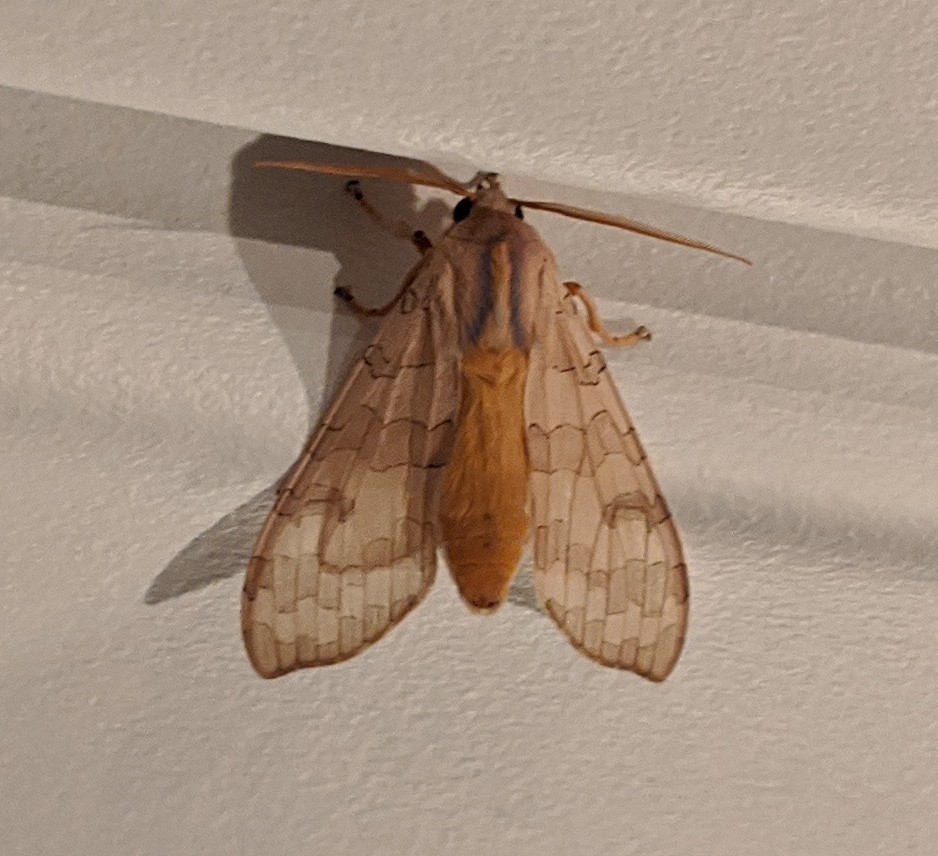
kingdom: Animalia
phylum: Arthropoda
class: Insecta
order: Lepidoptera
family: Erebidae
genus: Halysidota
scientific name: Halysidota
